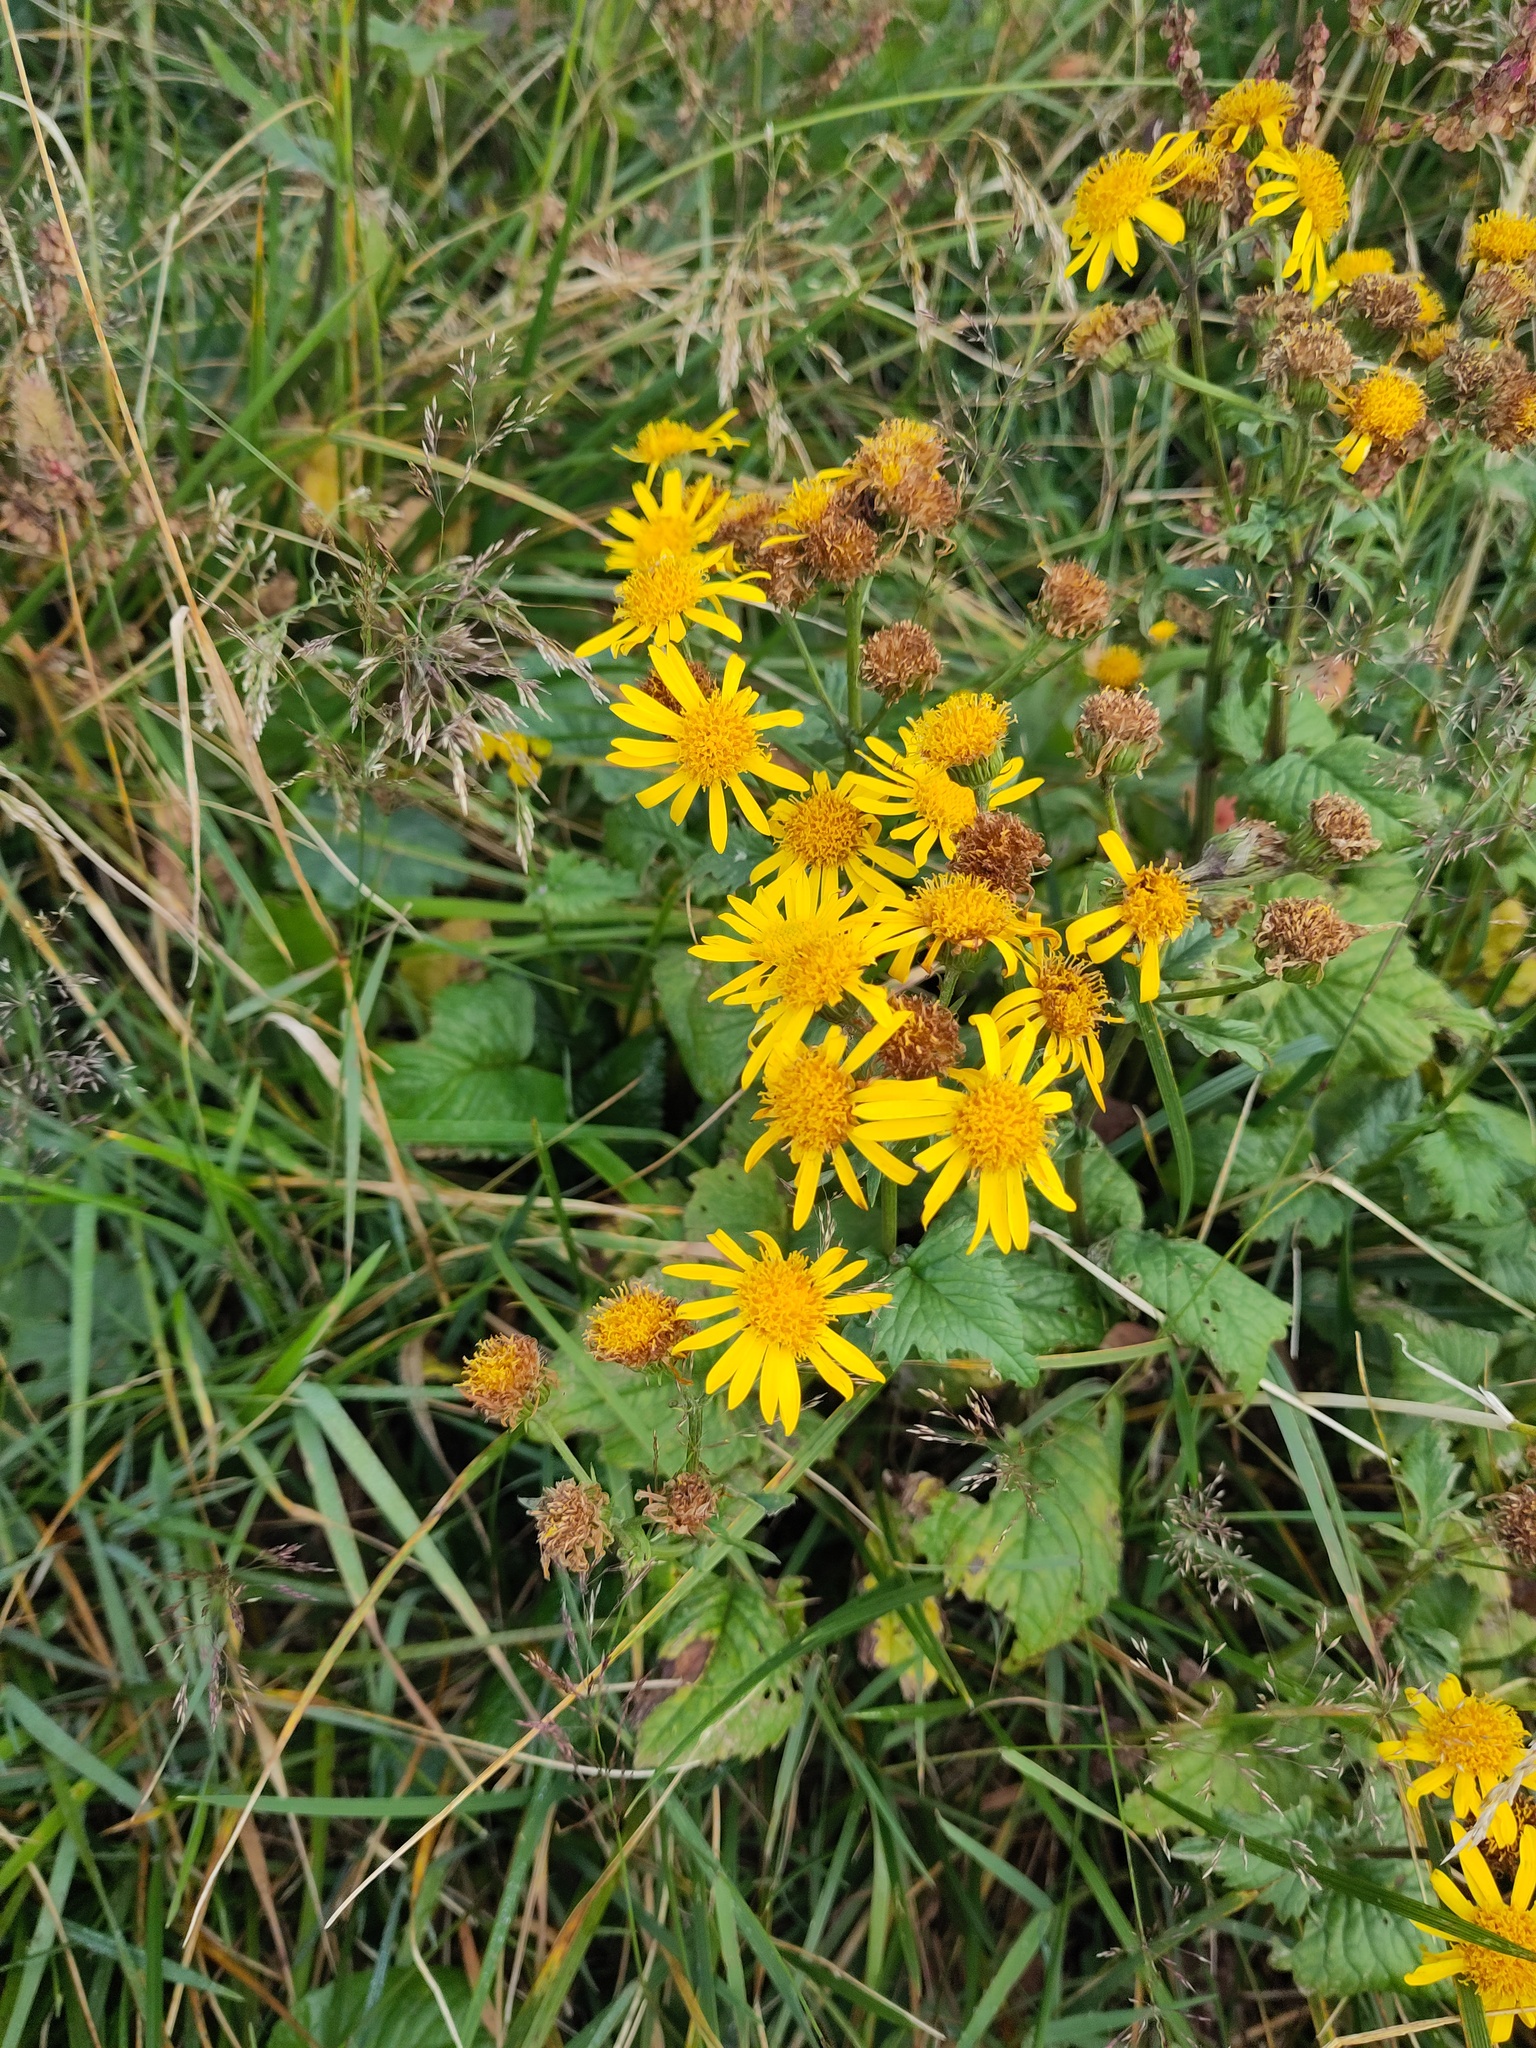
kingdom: Plantae
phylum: Tracheophyta
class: Magnoliopsida
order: Asterales
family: Asteraceae
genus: Jacobaea
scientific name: Jacobaea alpina
